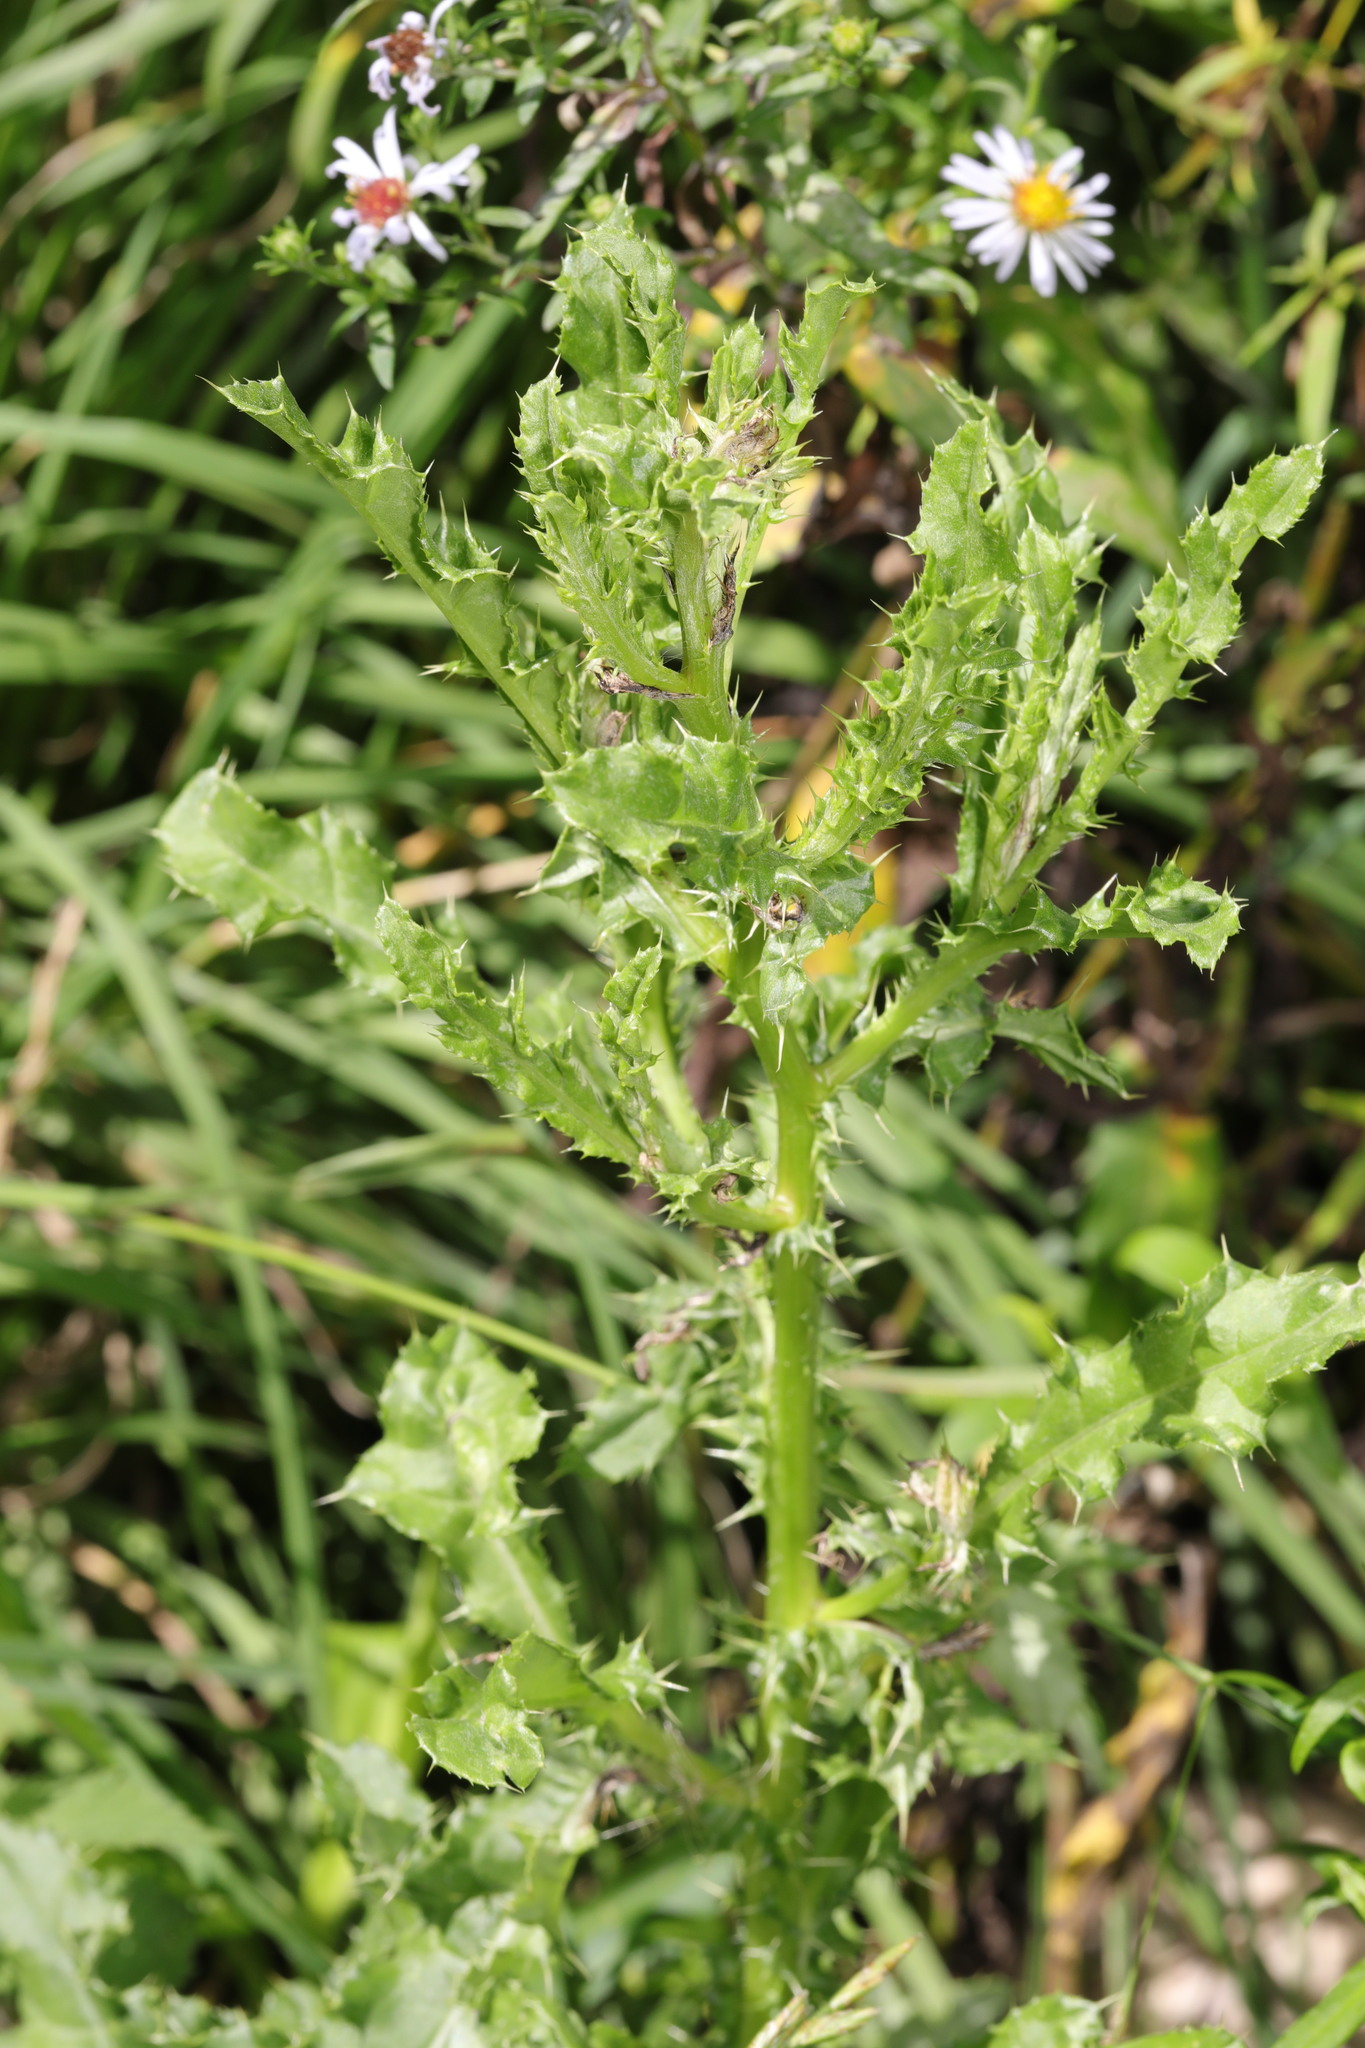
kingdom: Plantae
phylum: Tracheophyta
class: Magnoliopsida
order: Asterales
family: Asteraceae
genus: Cirsium
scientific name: Cirsium arvense
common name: Creeping thistle
